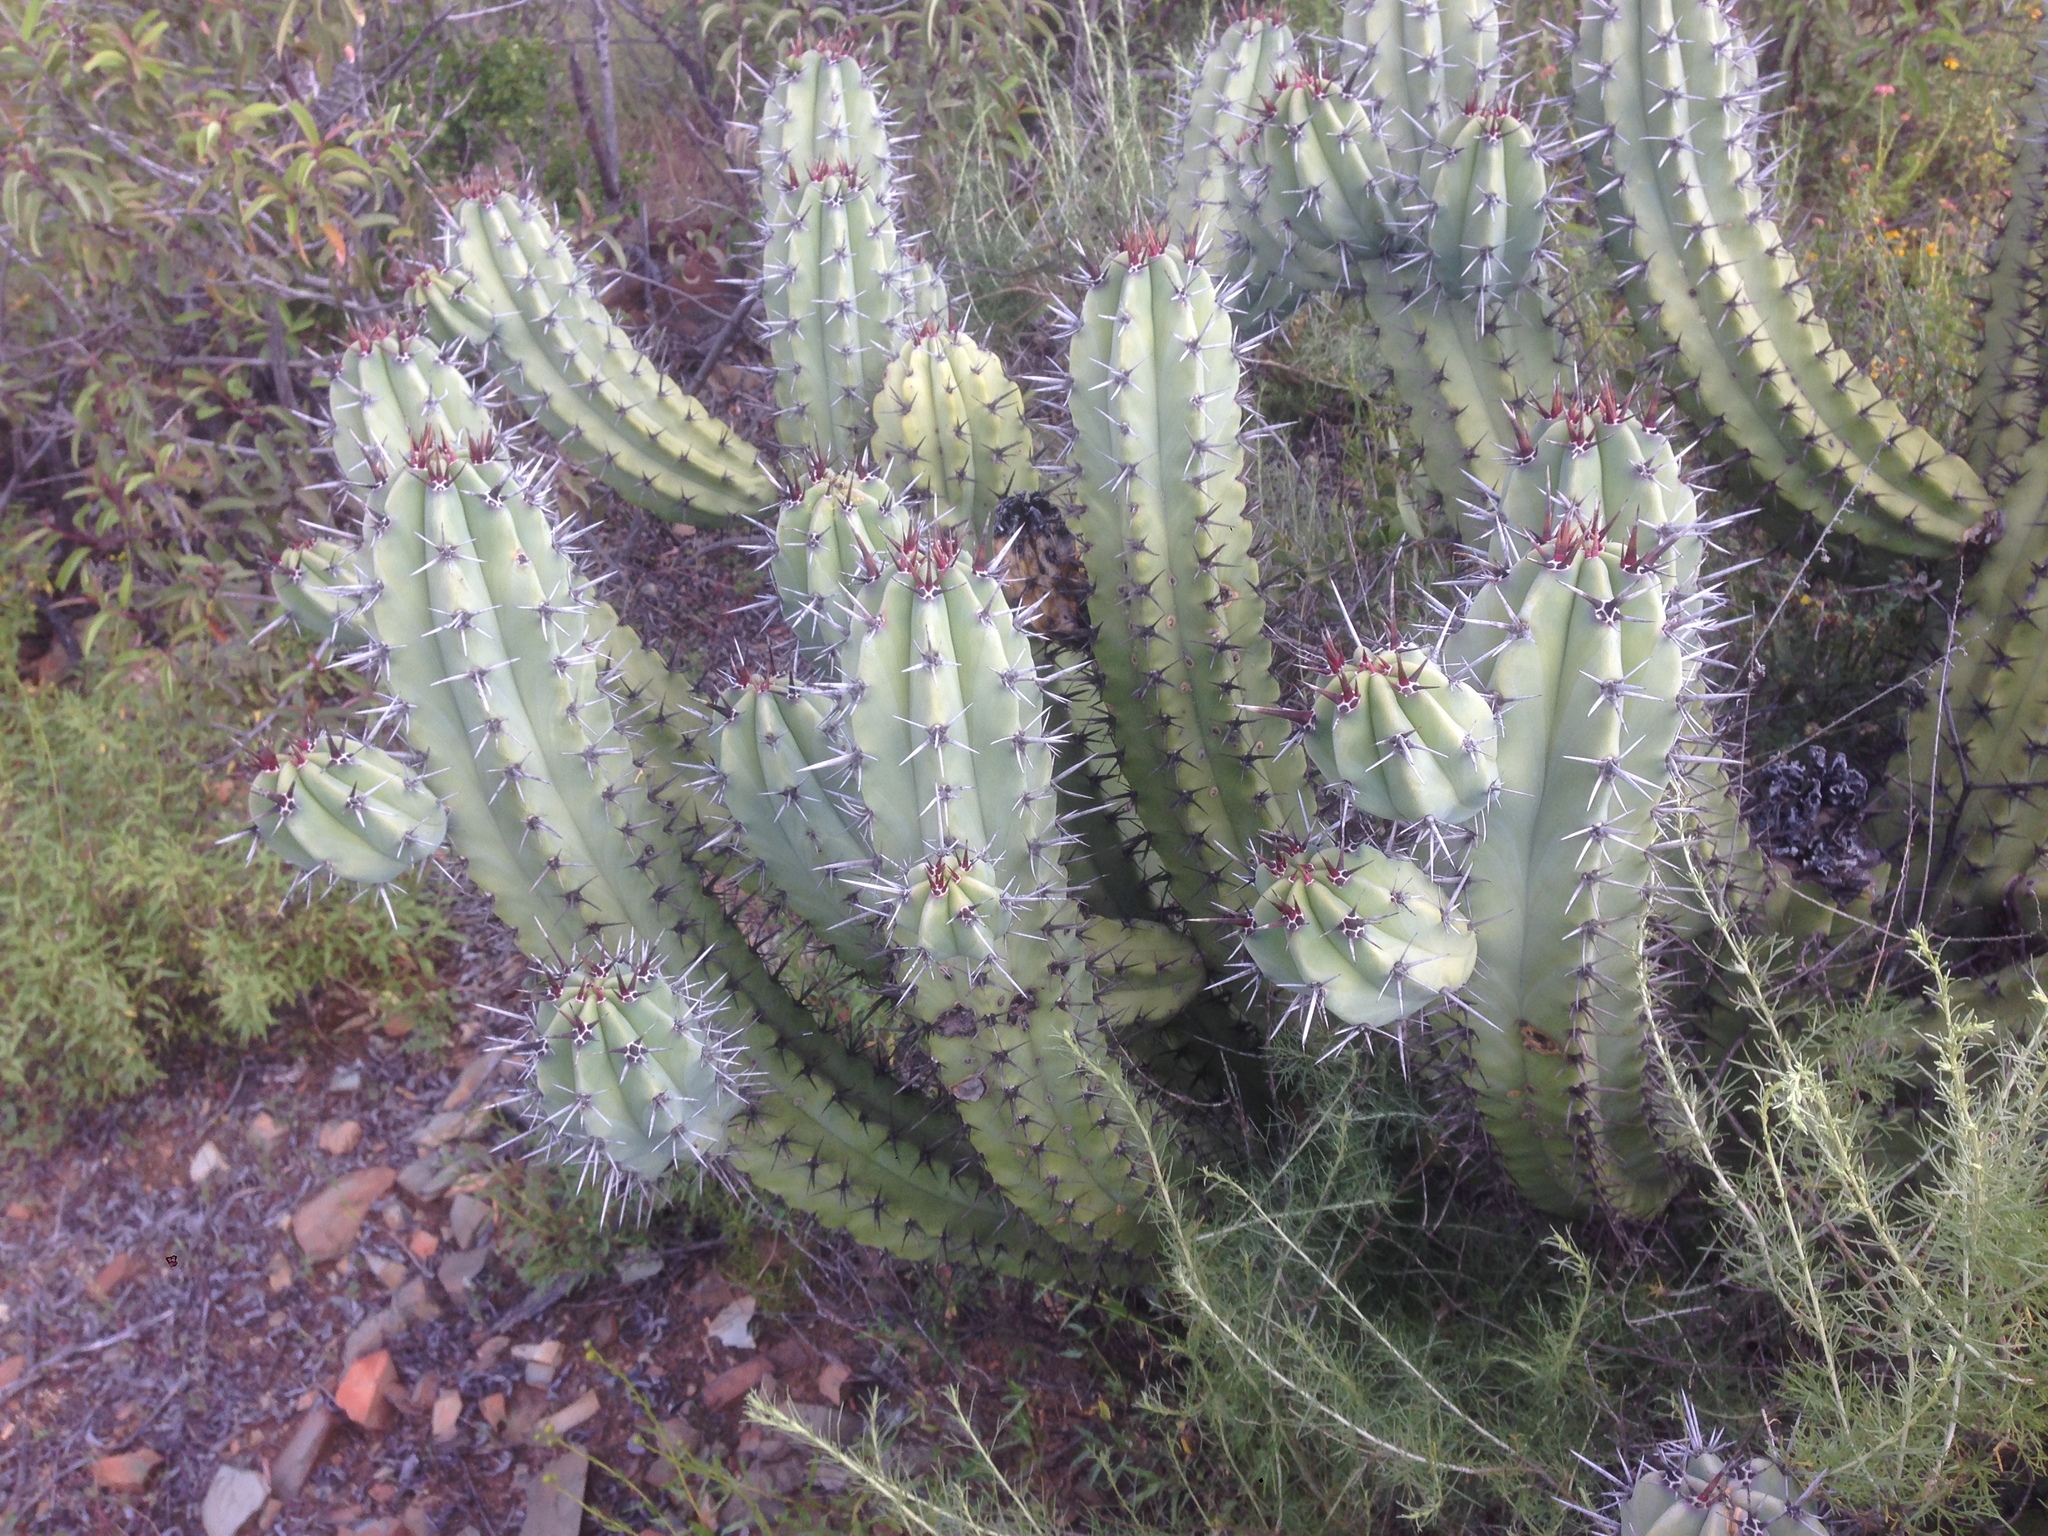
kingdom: Plantae
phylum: Tracheophyta
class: Magnoliopsida
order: Caryophyllales
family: Cactaceae
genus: Myrtillocactus
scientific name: Myrtillocactus cochal
